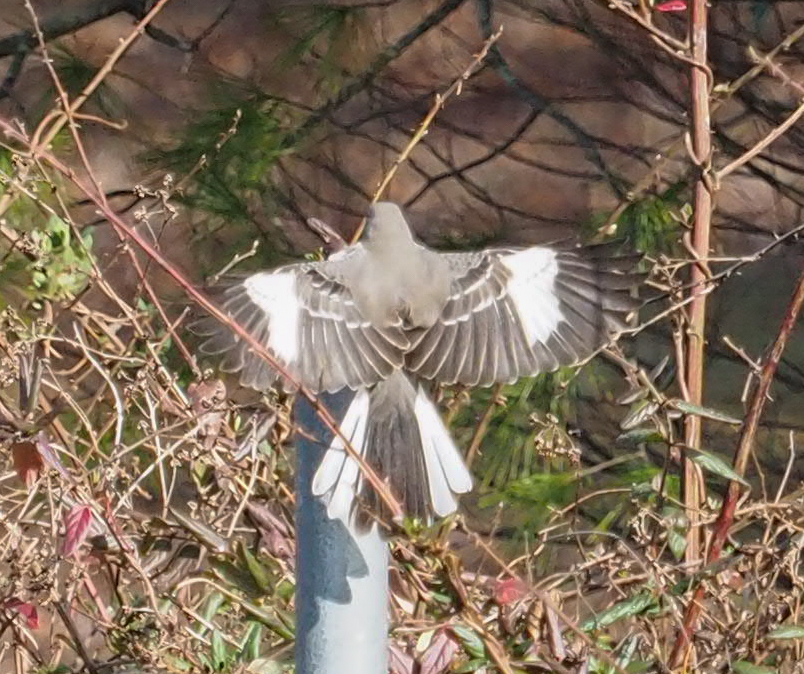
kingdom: Animalia
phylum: Chordata
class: Aves
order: Passeriformes
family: Mimidae
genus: Mimus
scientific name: Mimus polyglottos
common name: Northern mockingbird
